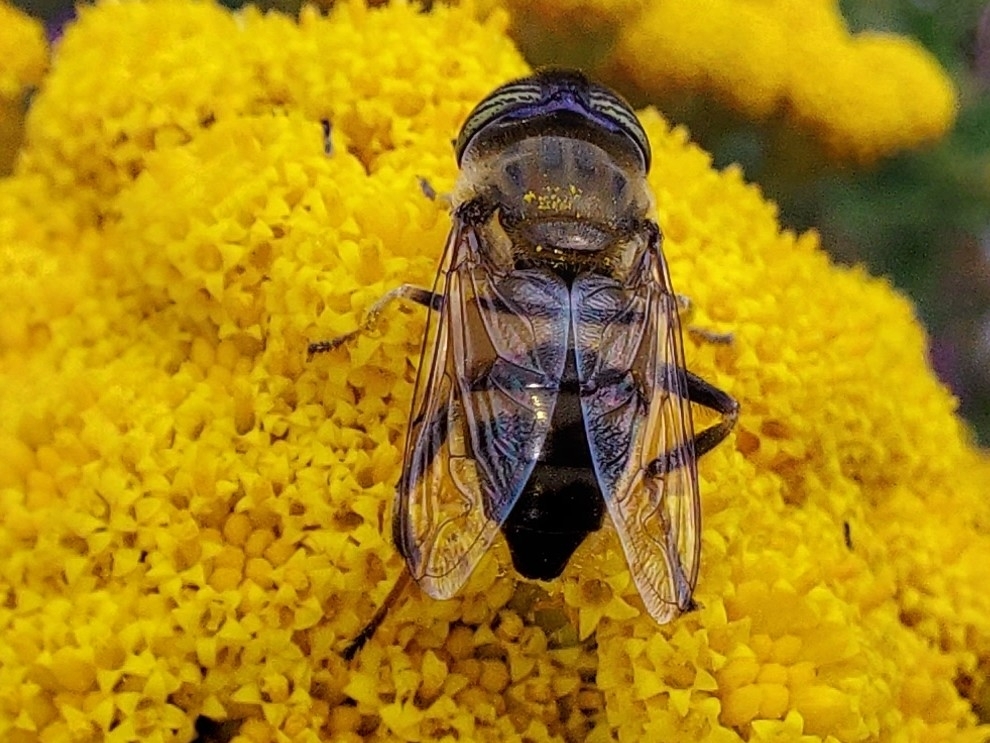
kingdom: Animalia
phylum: Arthropoda
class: Insecta
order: Diptera
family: Syrphidae
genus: Eristalinus
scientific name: Eristalinus taeniops
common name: Syrphid fly
